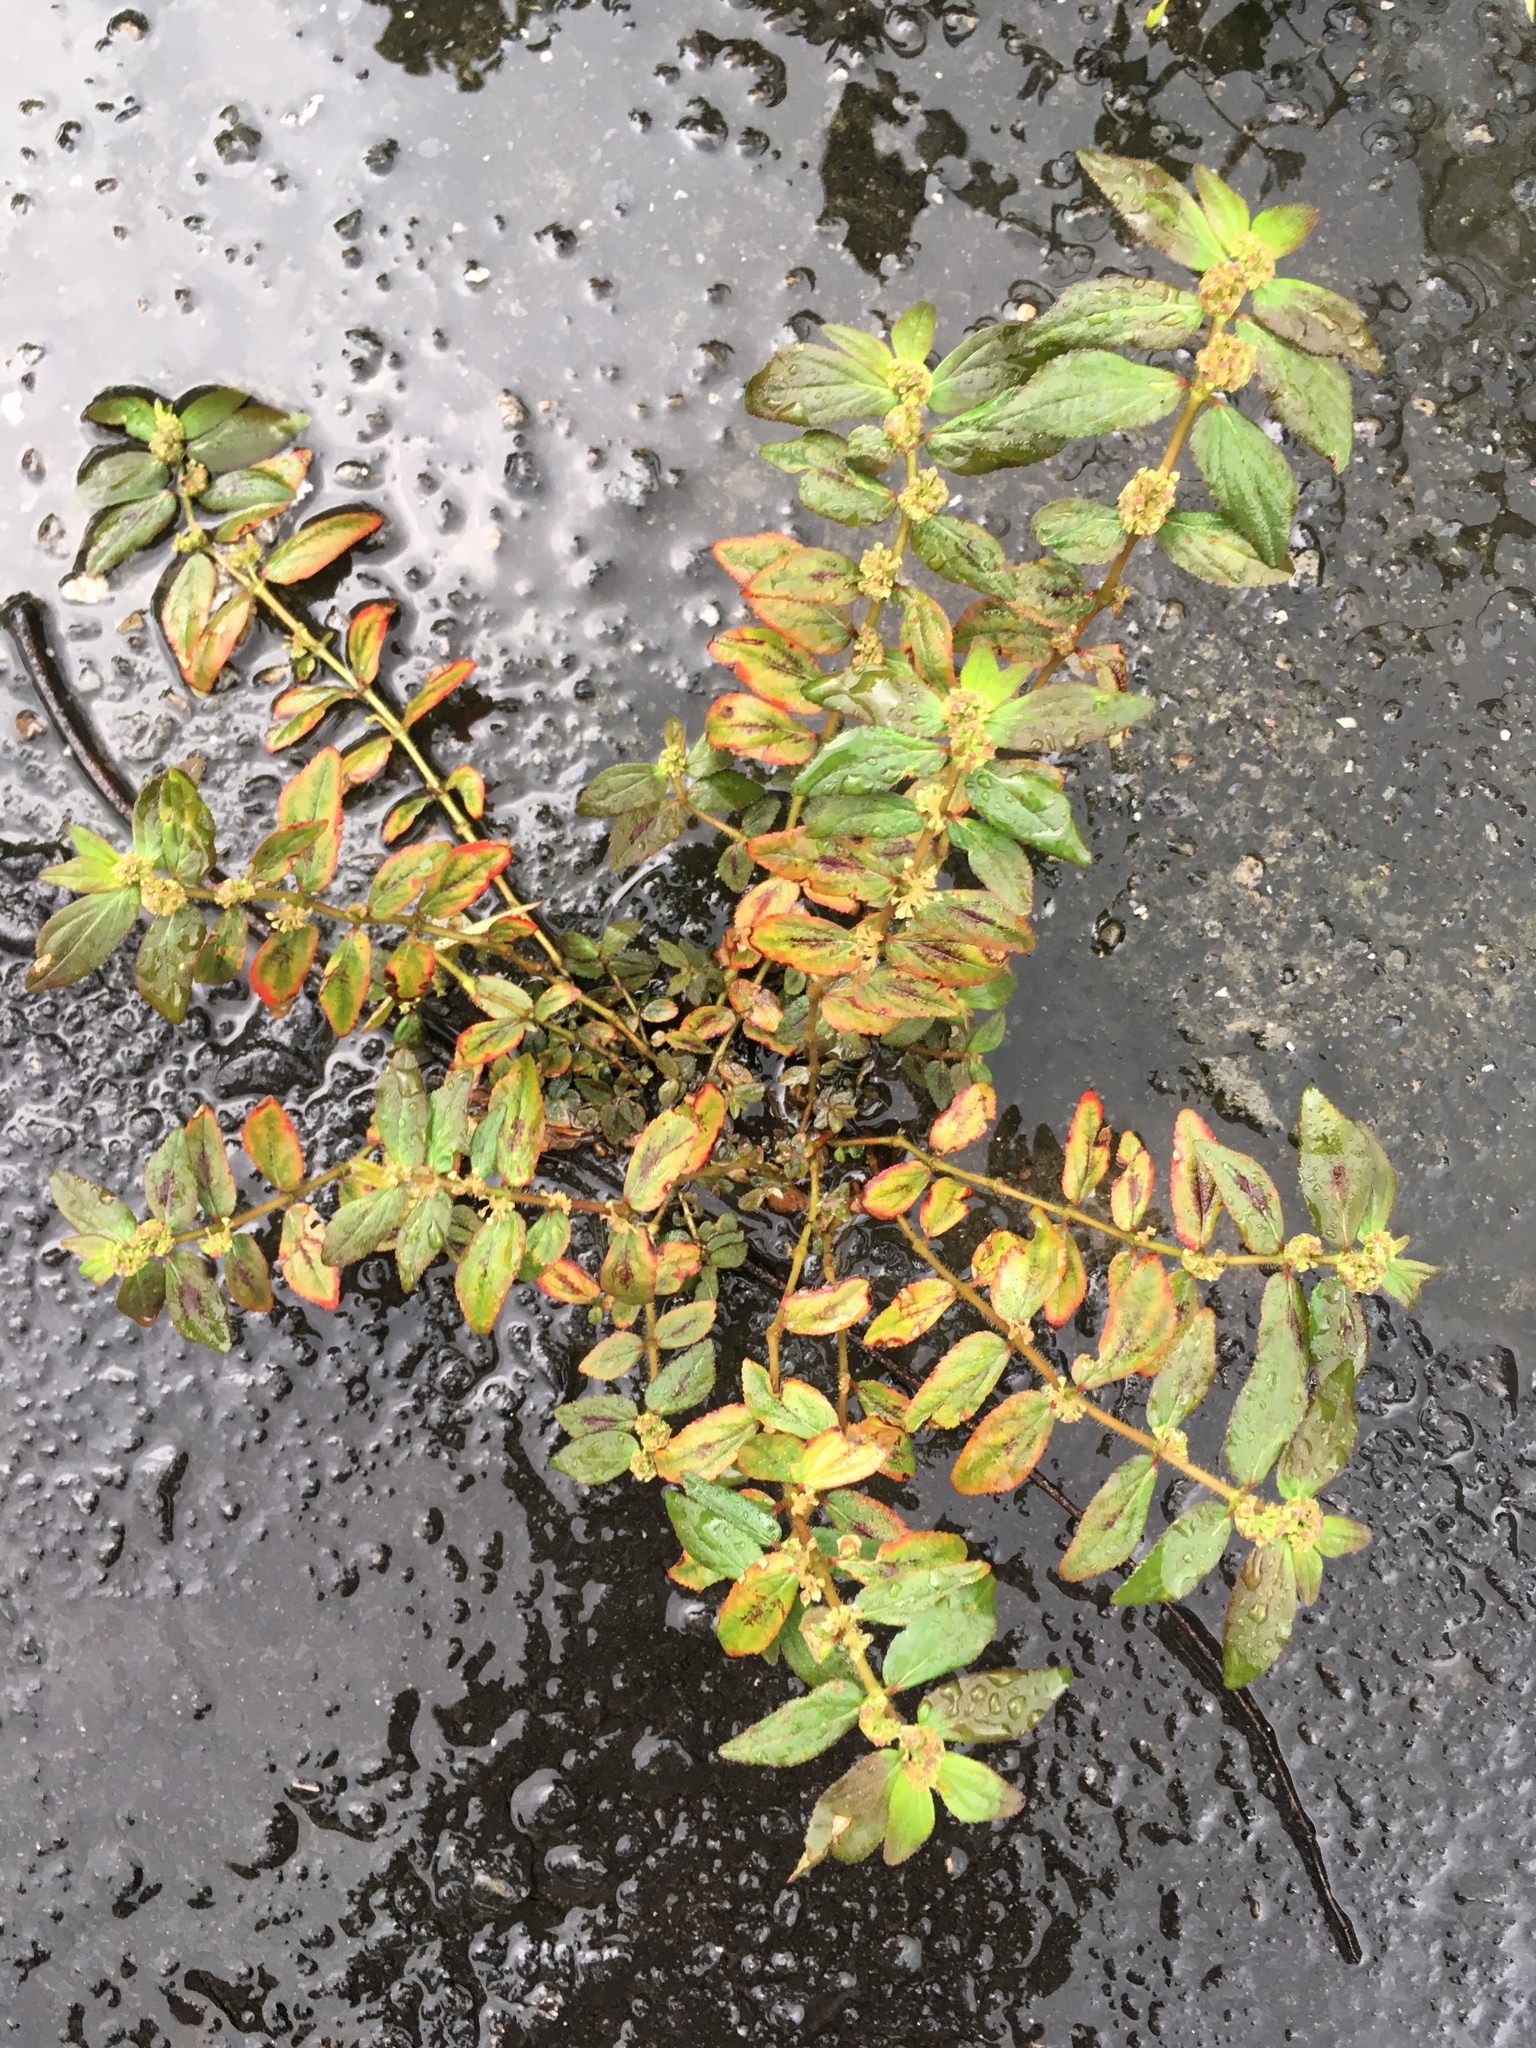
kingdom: Plantae
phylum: Tracheophyta
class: Magnoliopsida
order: Malpighiales
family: Euphorbiaceae
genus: Euphorbia
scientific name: Euphorbia hirta
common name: Pillpod sandmat
